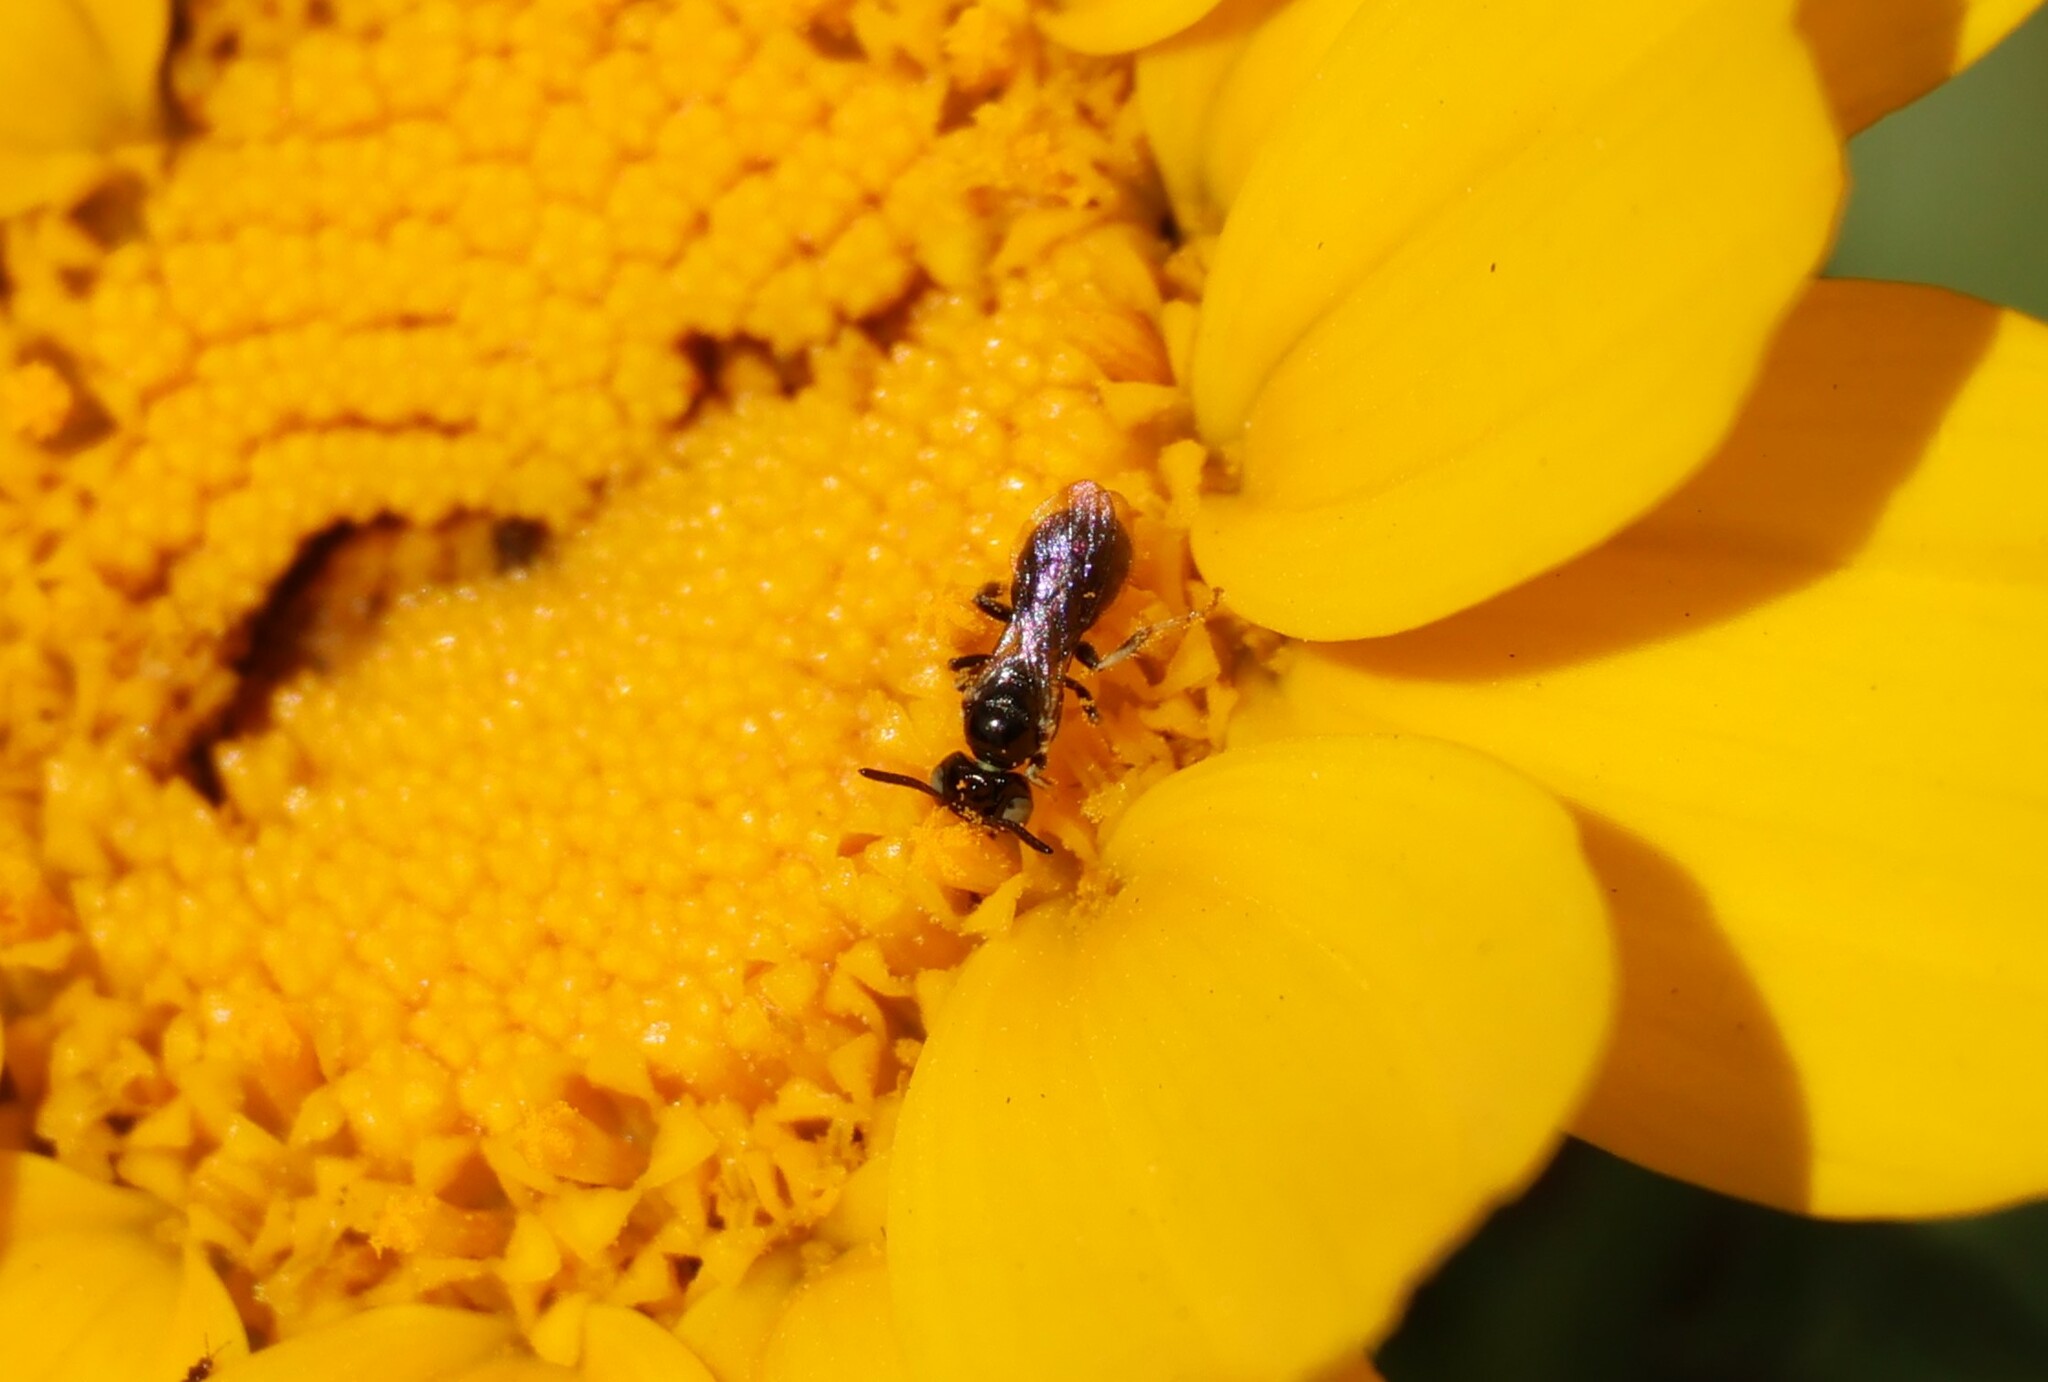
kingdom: Animalia
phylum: Arthropoda
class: Insecta
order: Hymenoptera
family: Apidae
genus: Ceratina
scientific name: Ceratina arizonensis
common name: Arizona small carpenter bee
